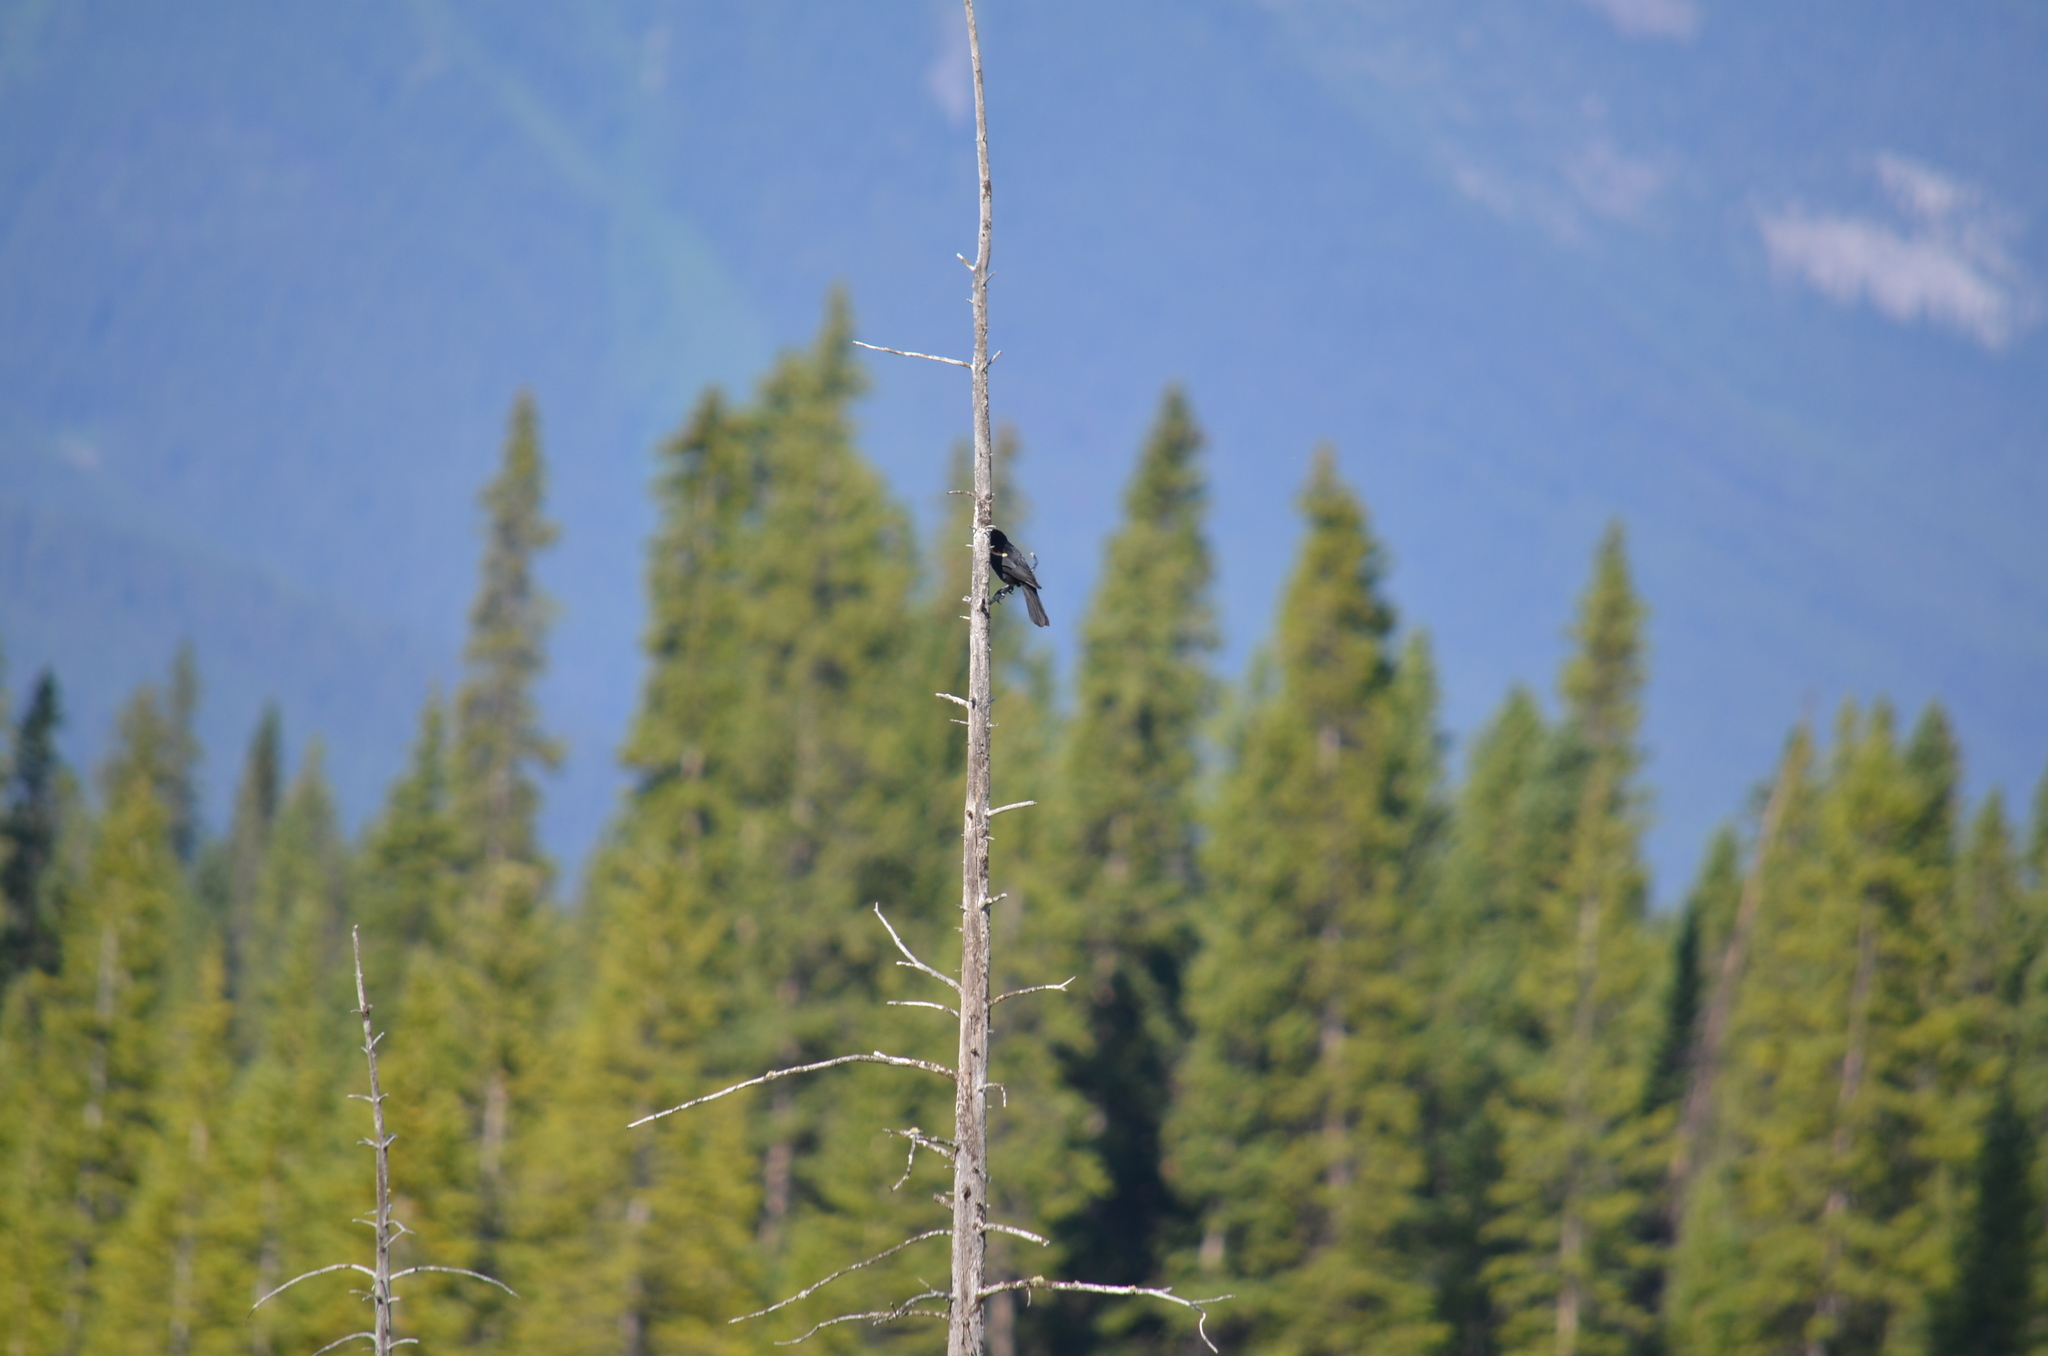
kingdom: Animalia
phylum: Chordata
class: Aves
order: Passeriformes
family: Icteridae
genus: Agelaius
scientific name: Agelaius phoeniceus
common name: Red-winged blackbird
